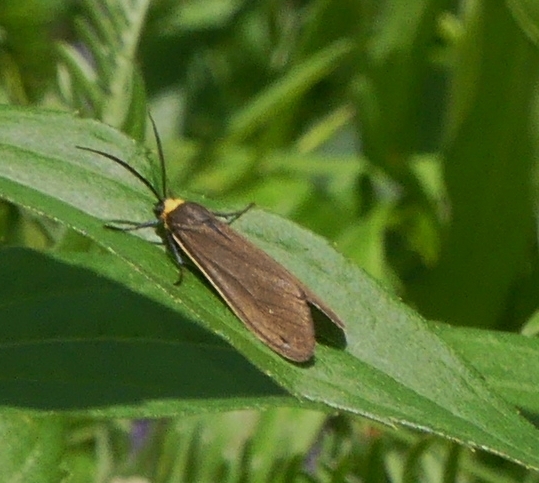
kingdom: Animalia
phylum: Arthropoda
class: Insecta
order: Lepidoptera
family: Erebidae
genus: Cisseps
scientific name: Cisseps fulvicollis
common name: Yellow-collared scape moth
